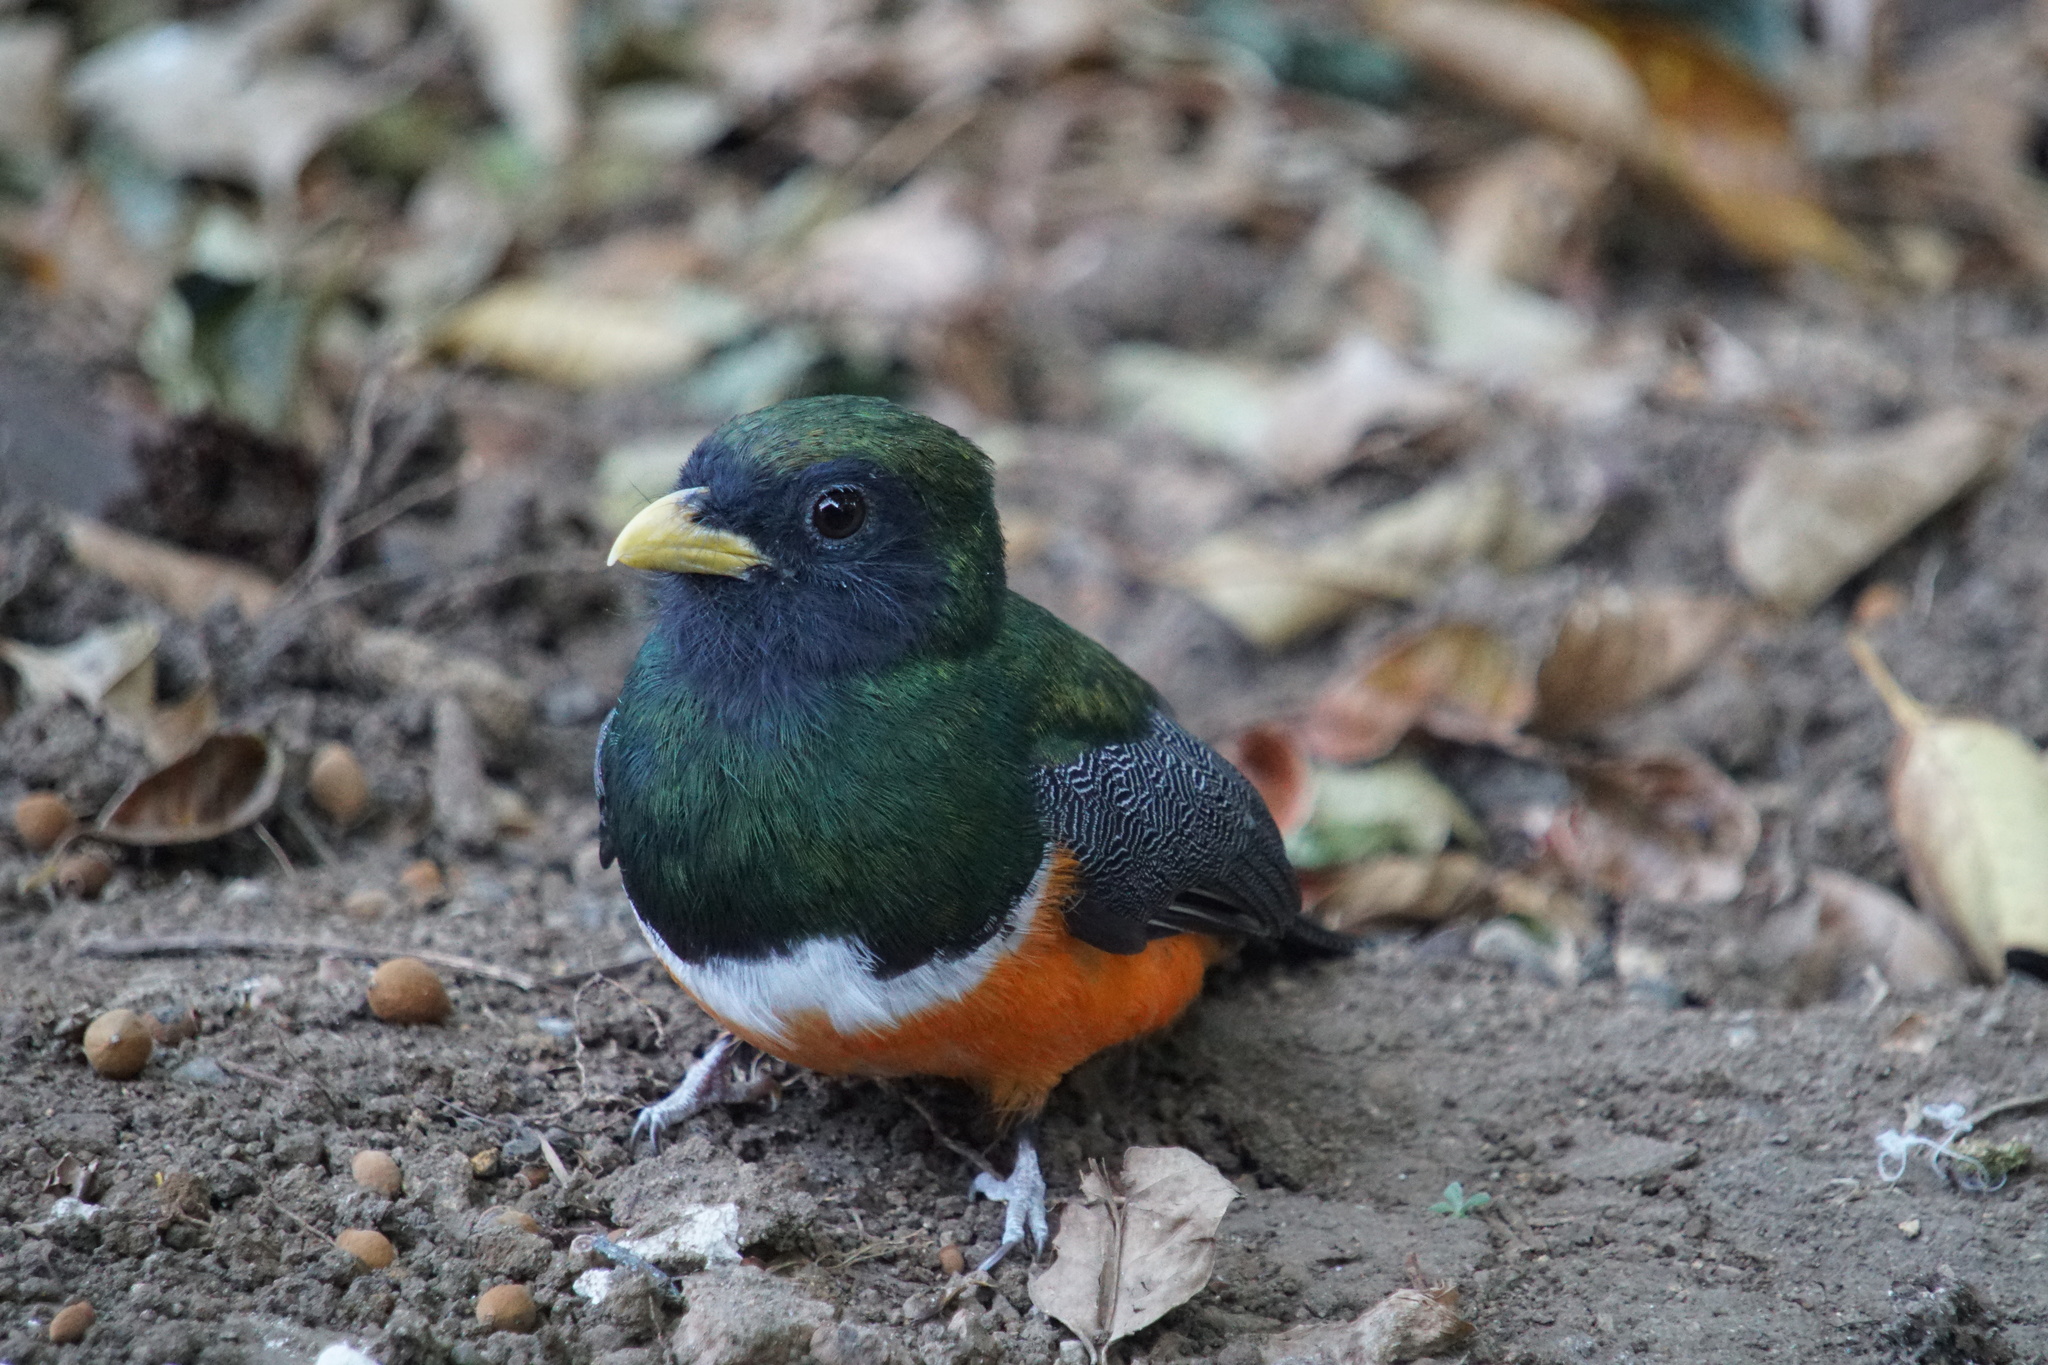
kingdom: Animalia
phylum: Chordata
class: Aves
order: Trogoniformes
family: Trogonidae
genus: Trogon
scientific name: Trogon collaris
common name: Collared trogon
